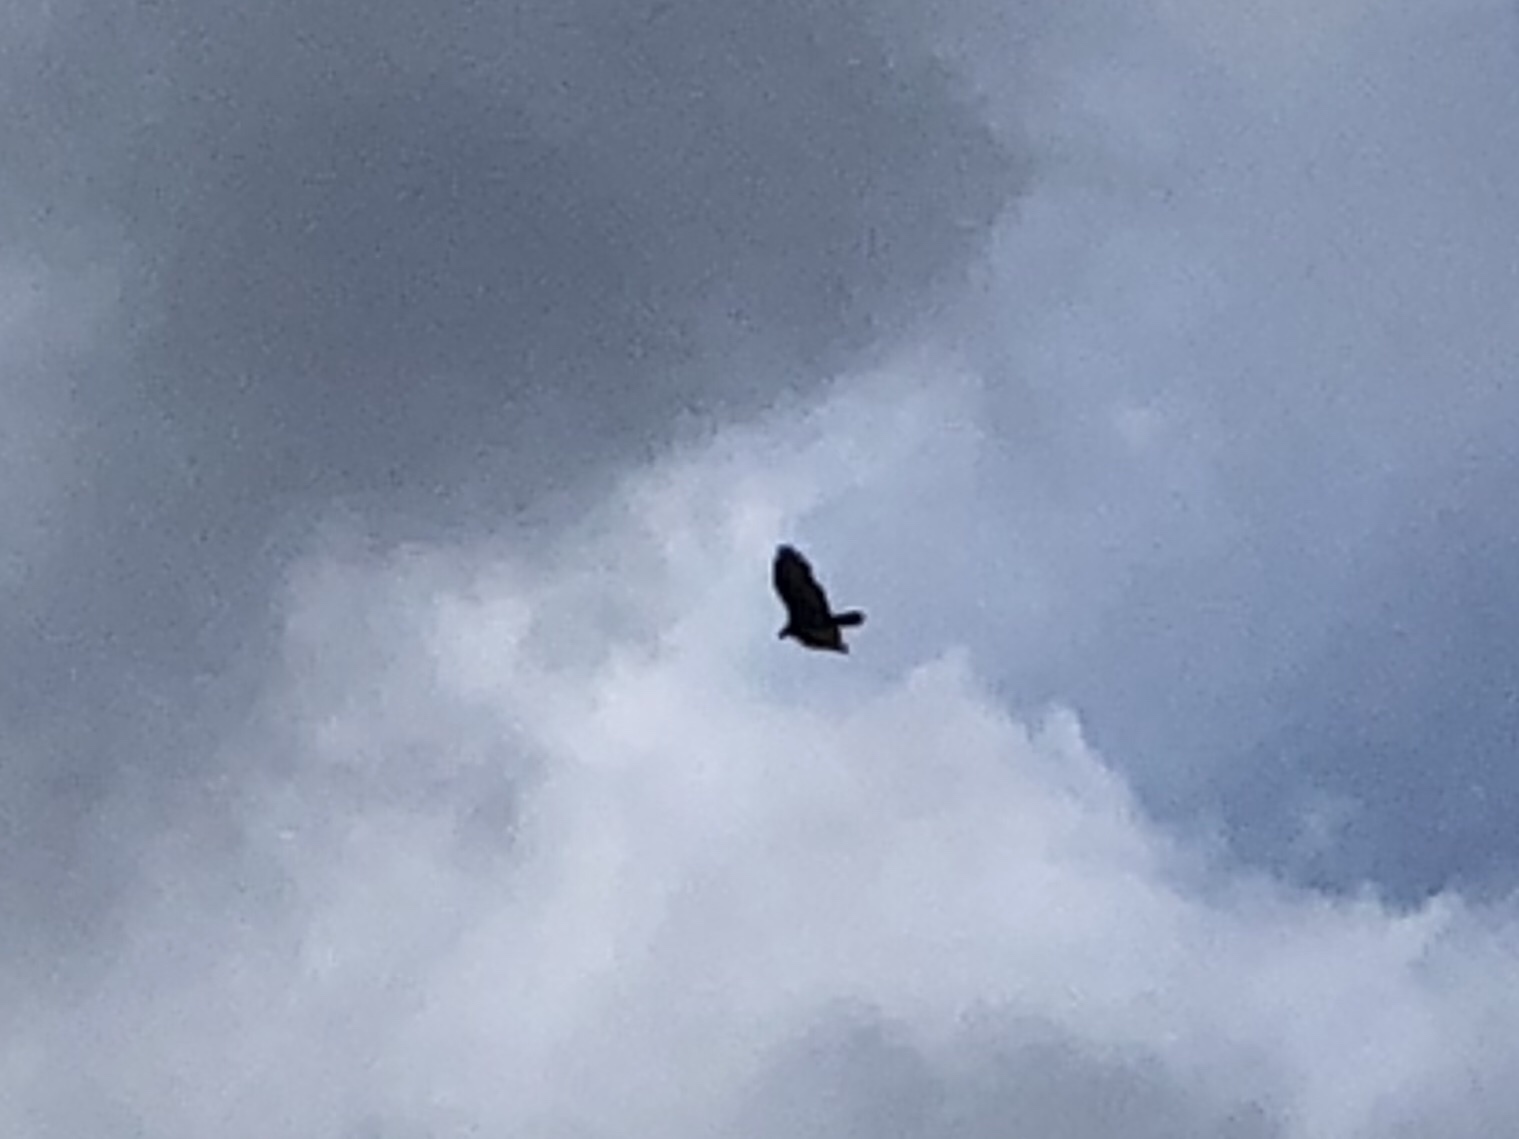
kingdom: Animalia
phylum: Chordata
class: Aves
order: Accipitriformes
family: Cathartidae
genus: Cathartes
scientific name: Cathartes aura
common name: Turkey vulture
